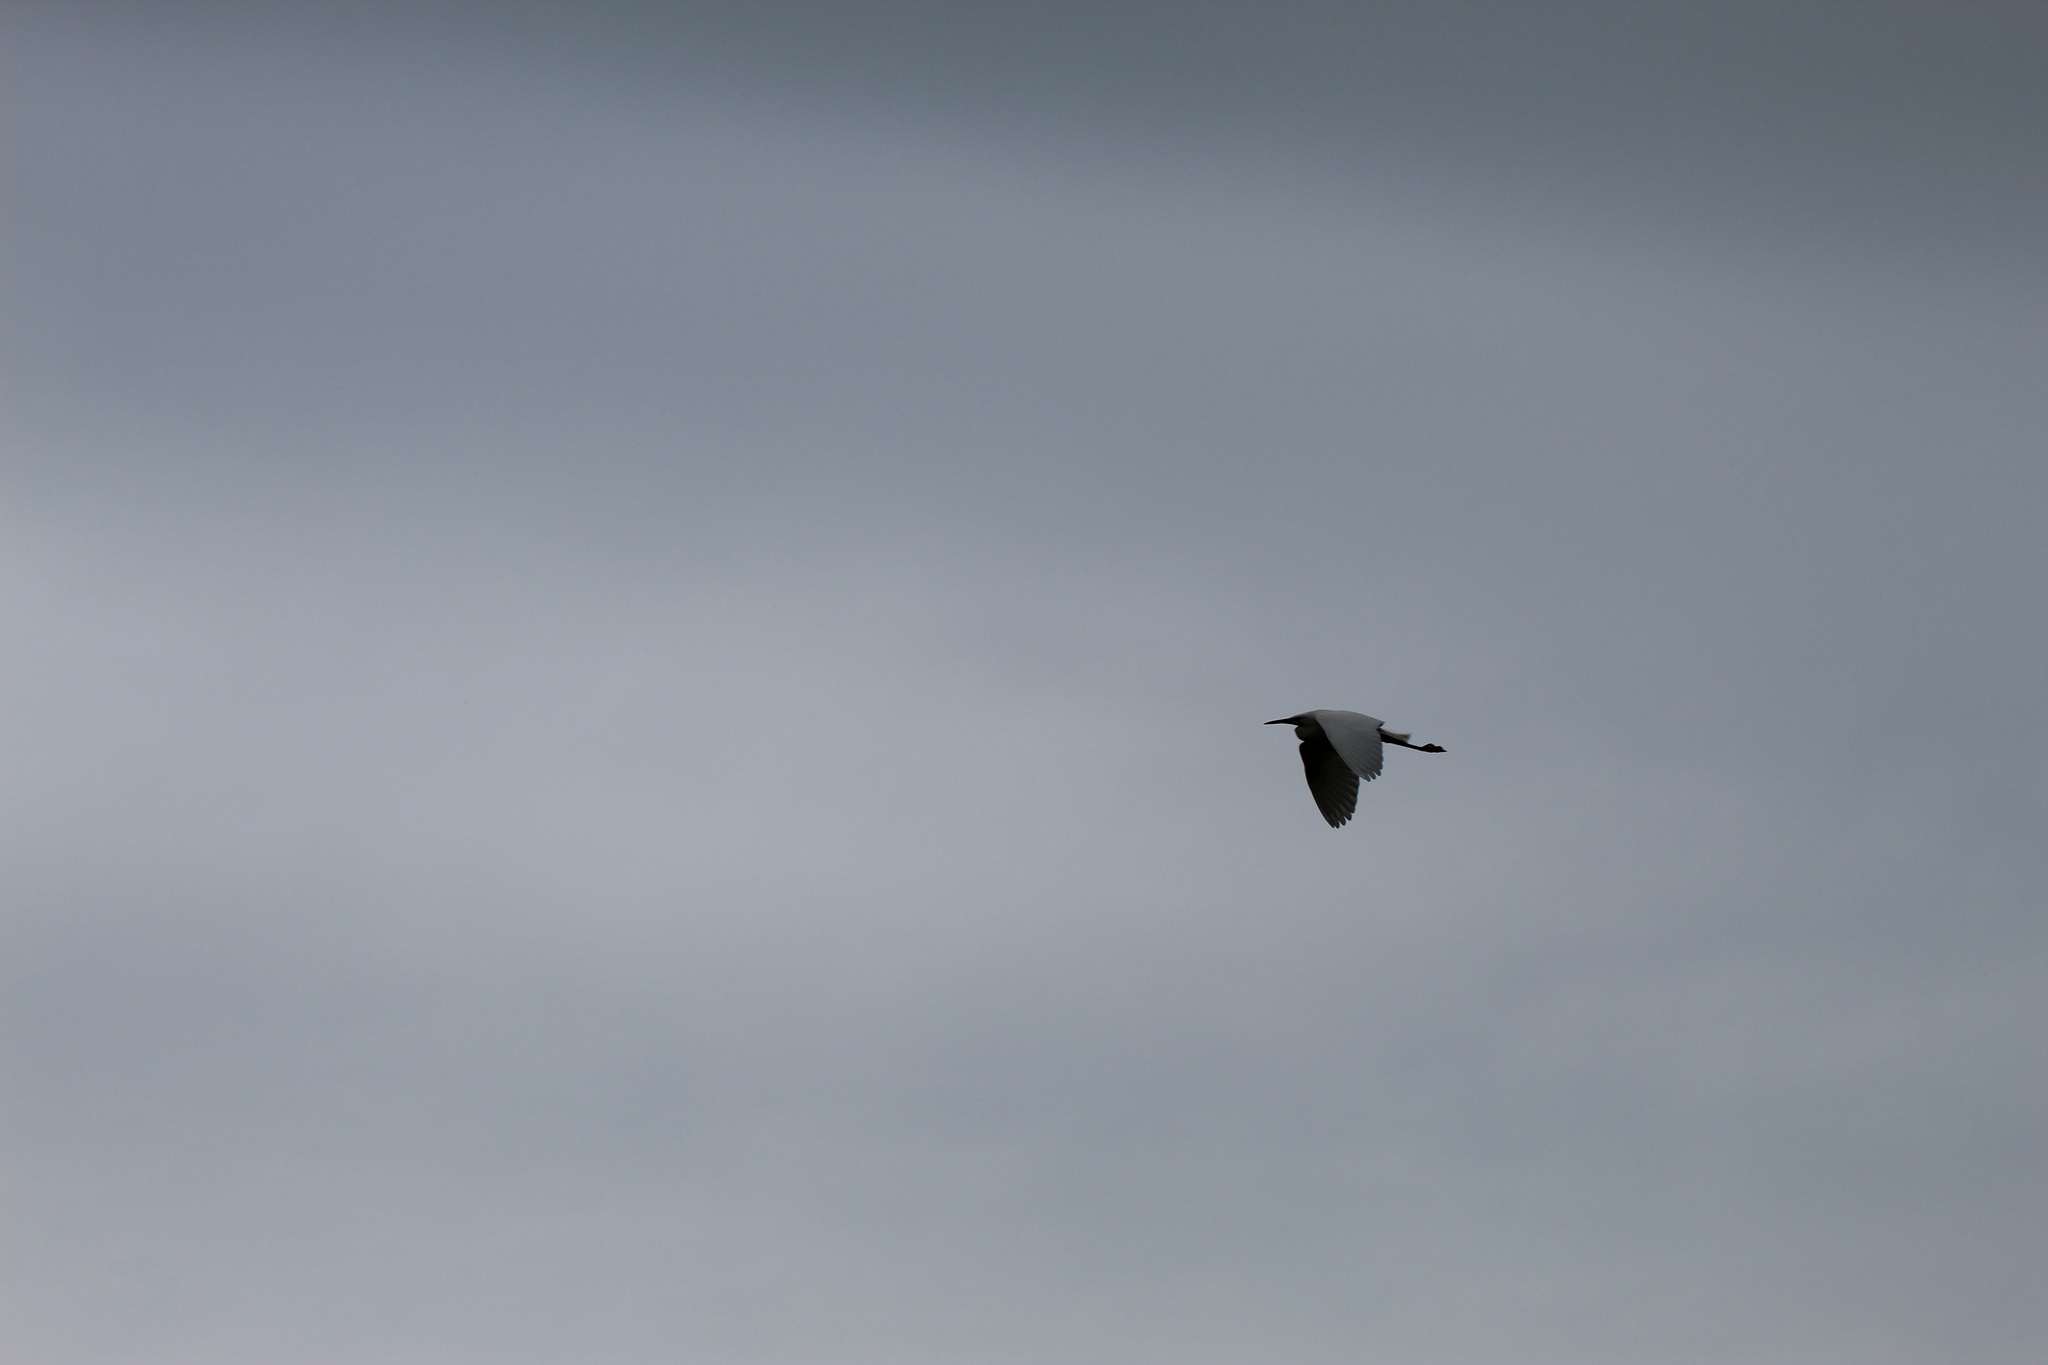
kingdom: Animalia
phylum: Chordata
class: Aves
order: Pelecaniformes
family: Ardeidae
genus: Egretta
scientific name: Egretta garzetta
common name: Little egret
